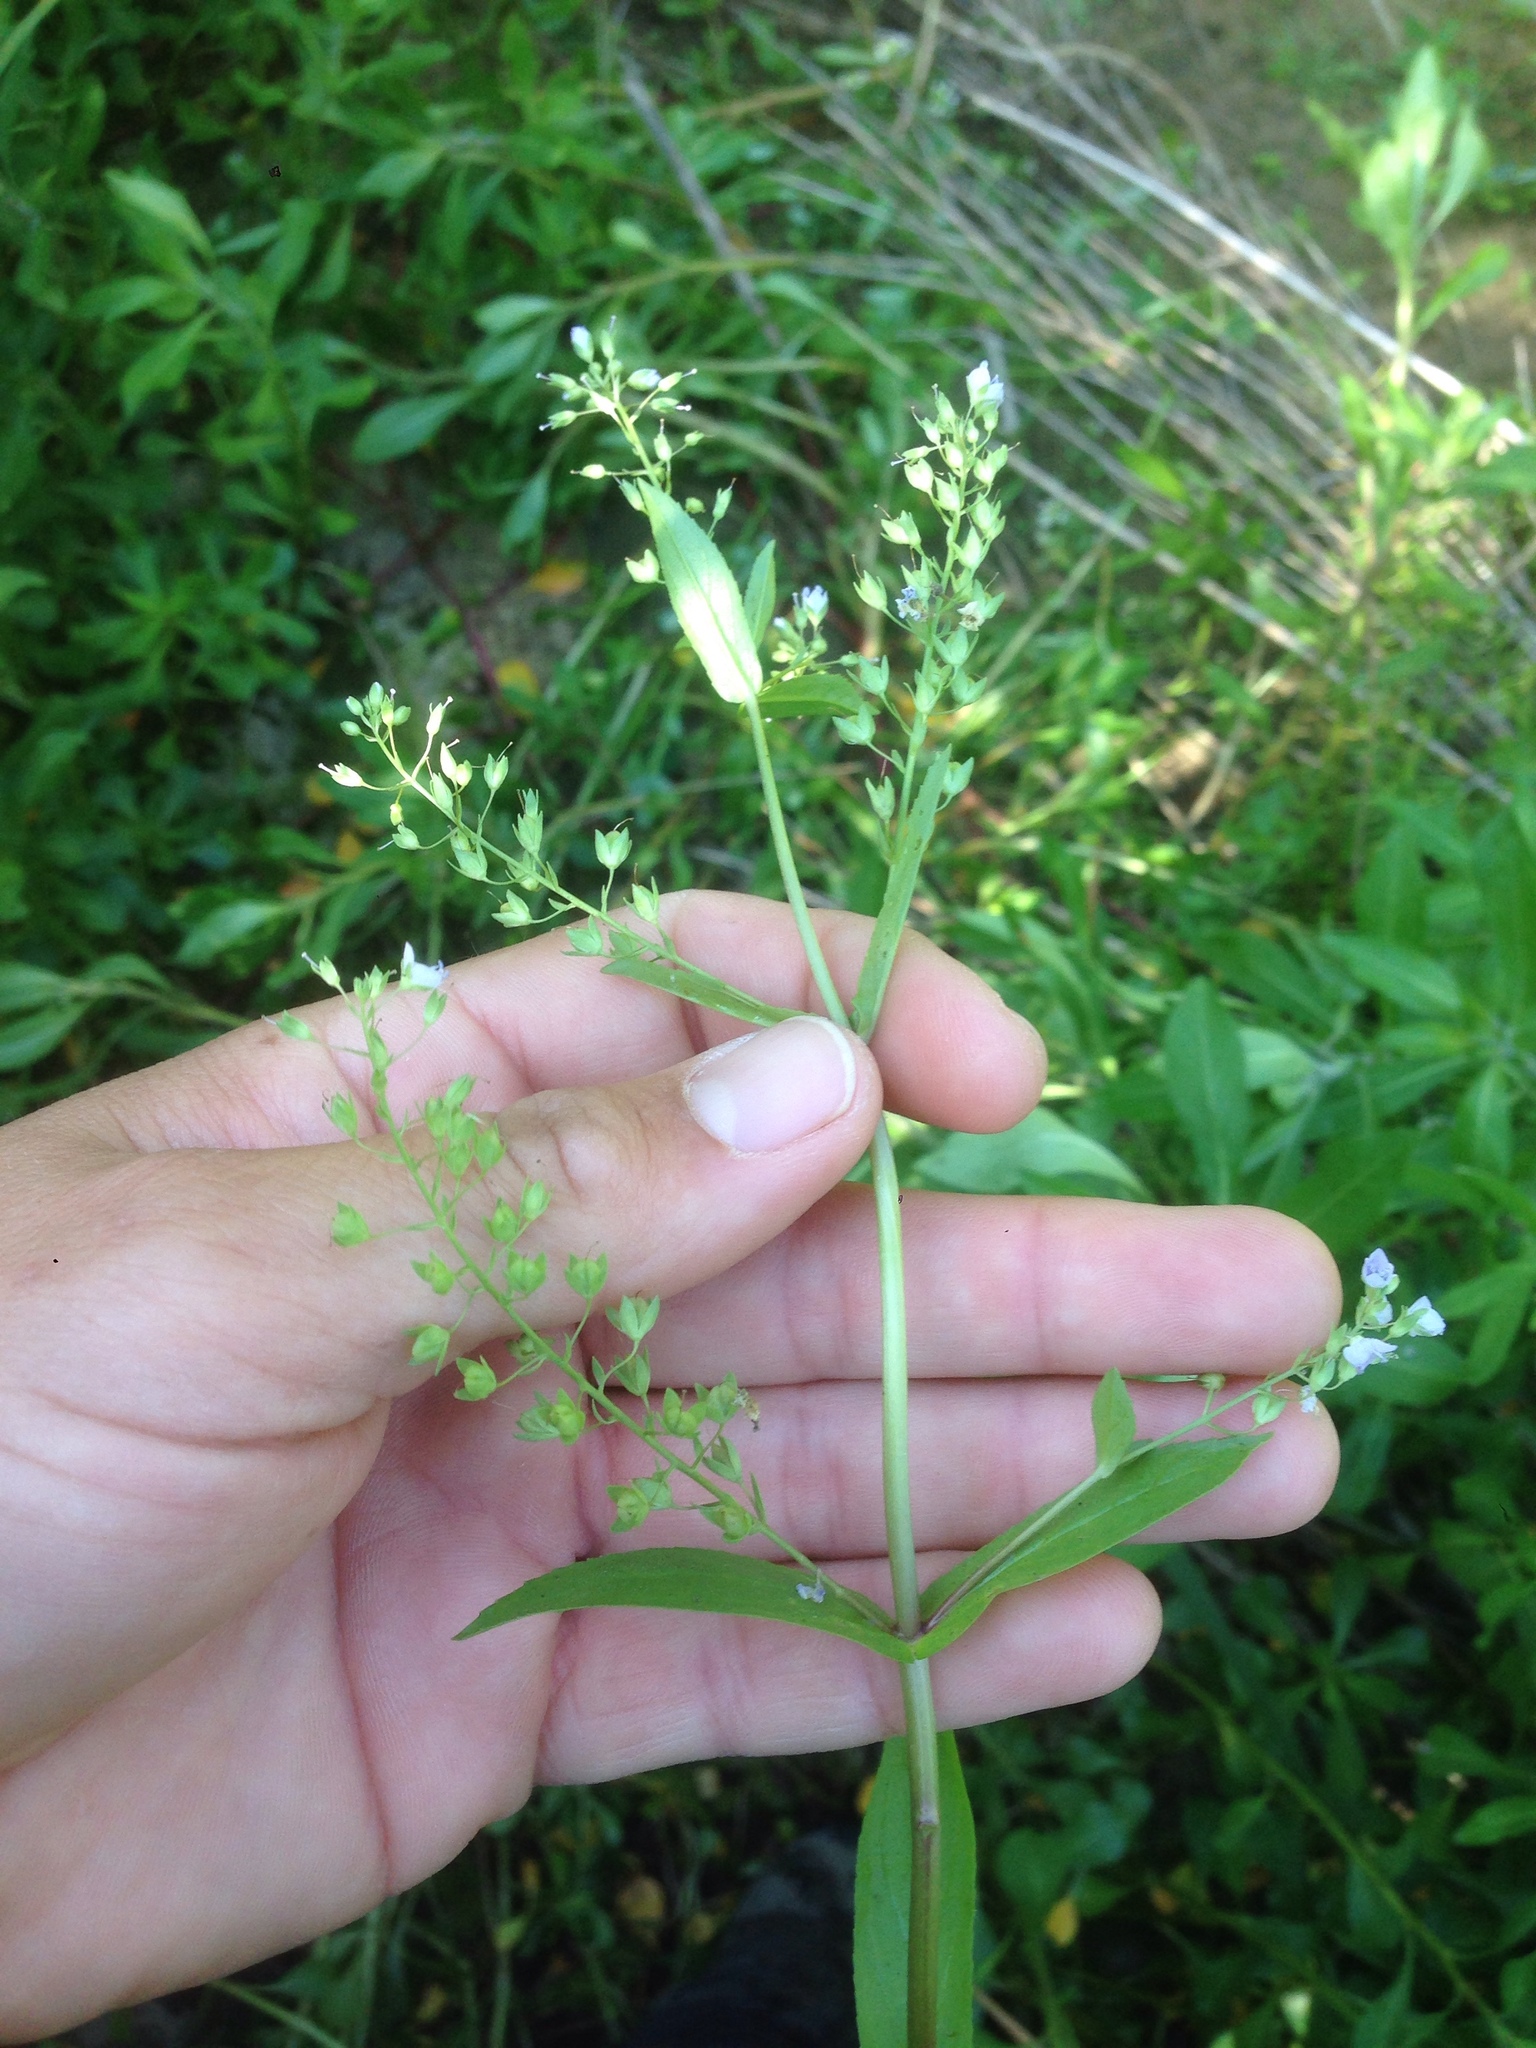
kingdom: Plantae
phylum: Tracheophyta
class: Magnoliopsida
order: Lamiales
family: Plantaginaceae
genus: Veronica
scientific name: Veronica anagallis-aquatica
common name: Water speedwell
